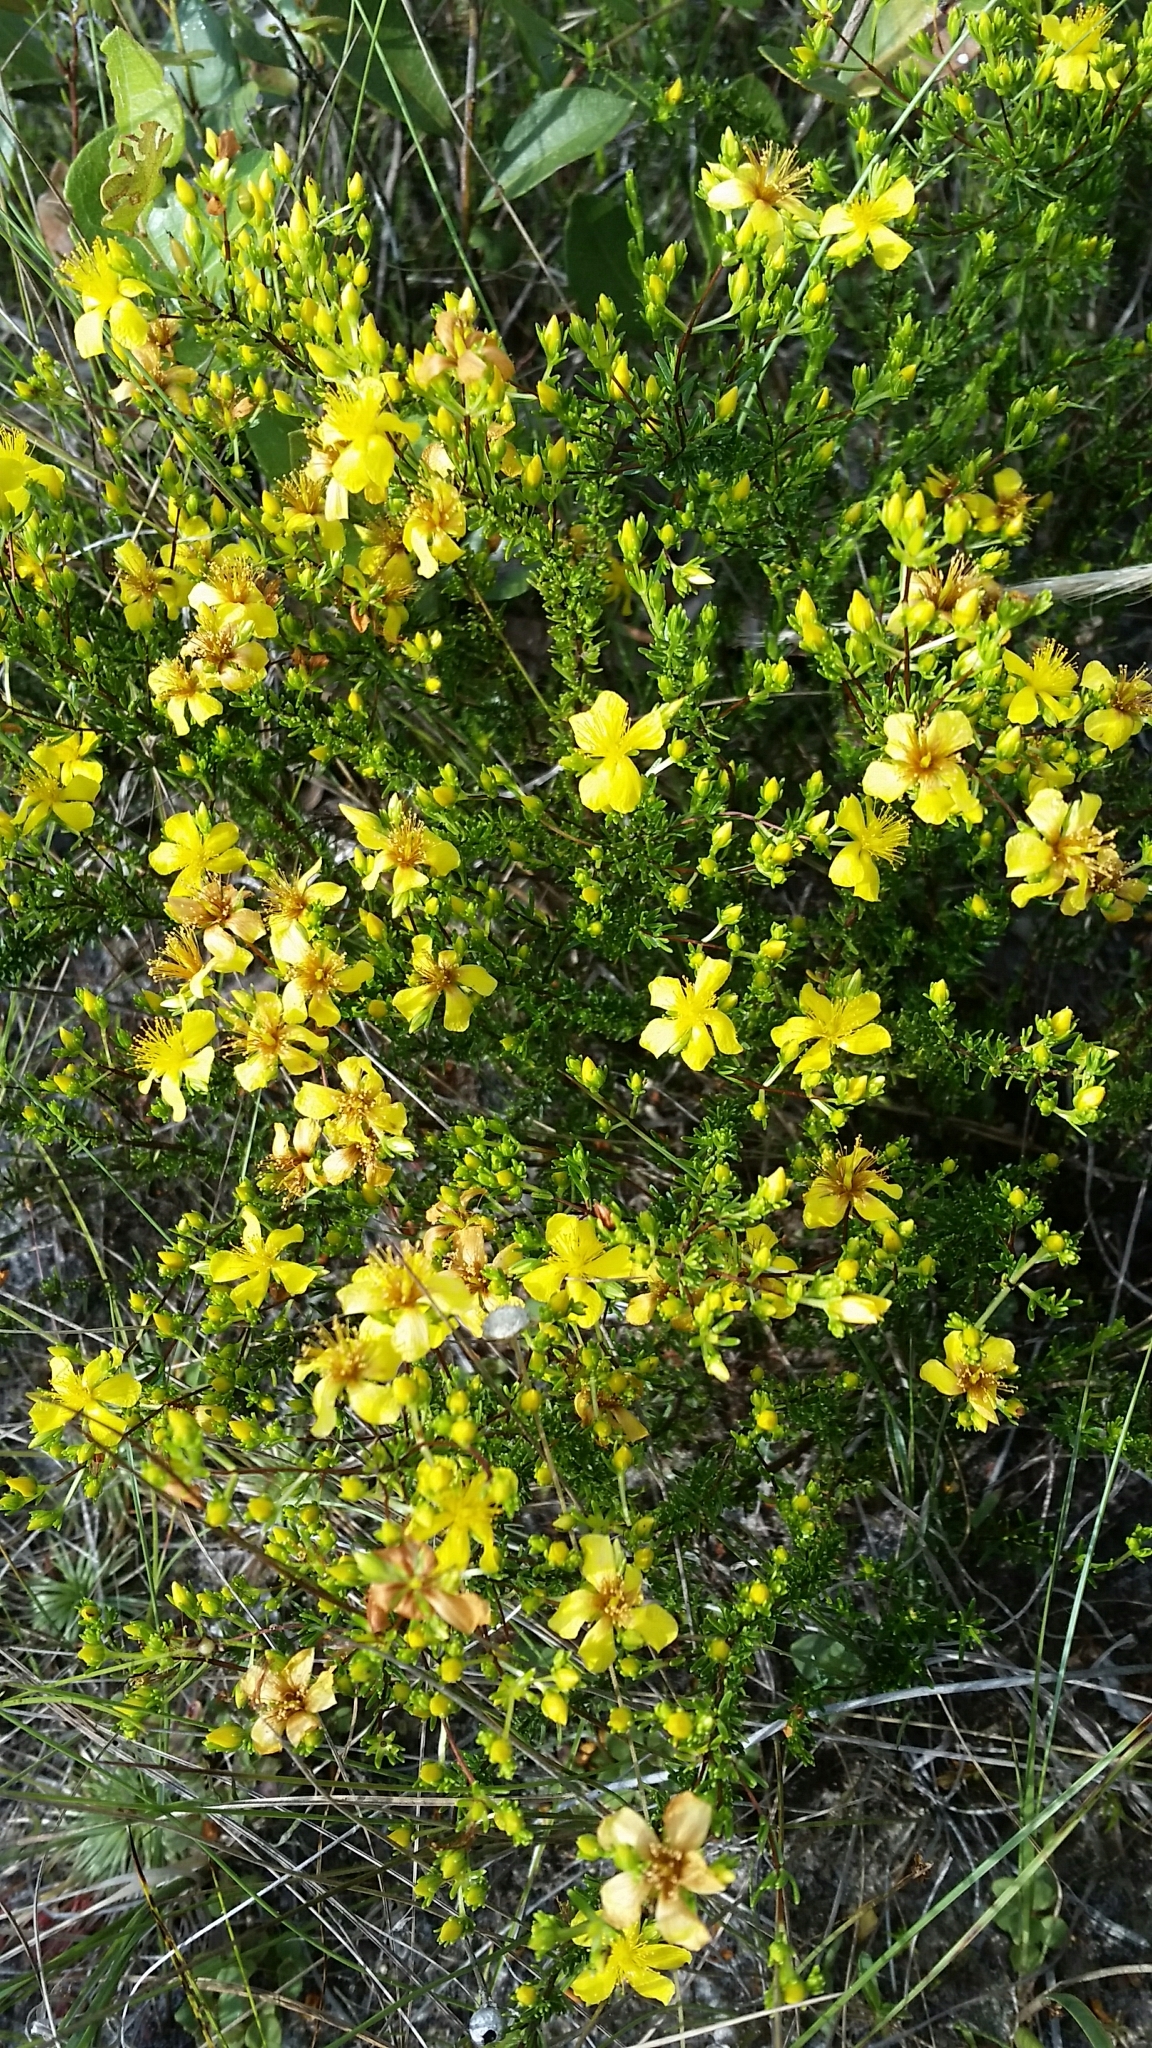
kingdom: Plantae
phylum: Tracheophyta
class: Magnoliopsida
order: Malpighiales
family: Hypericaceae
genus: Hypericum
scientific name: Hypericum tenuifolium
